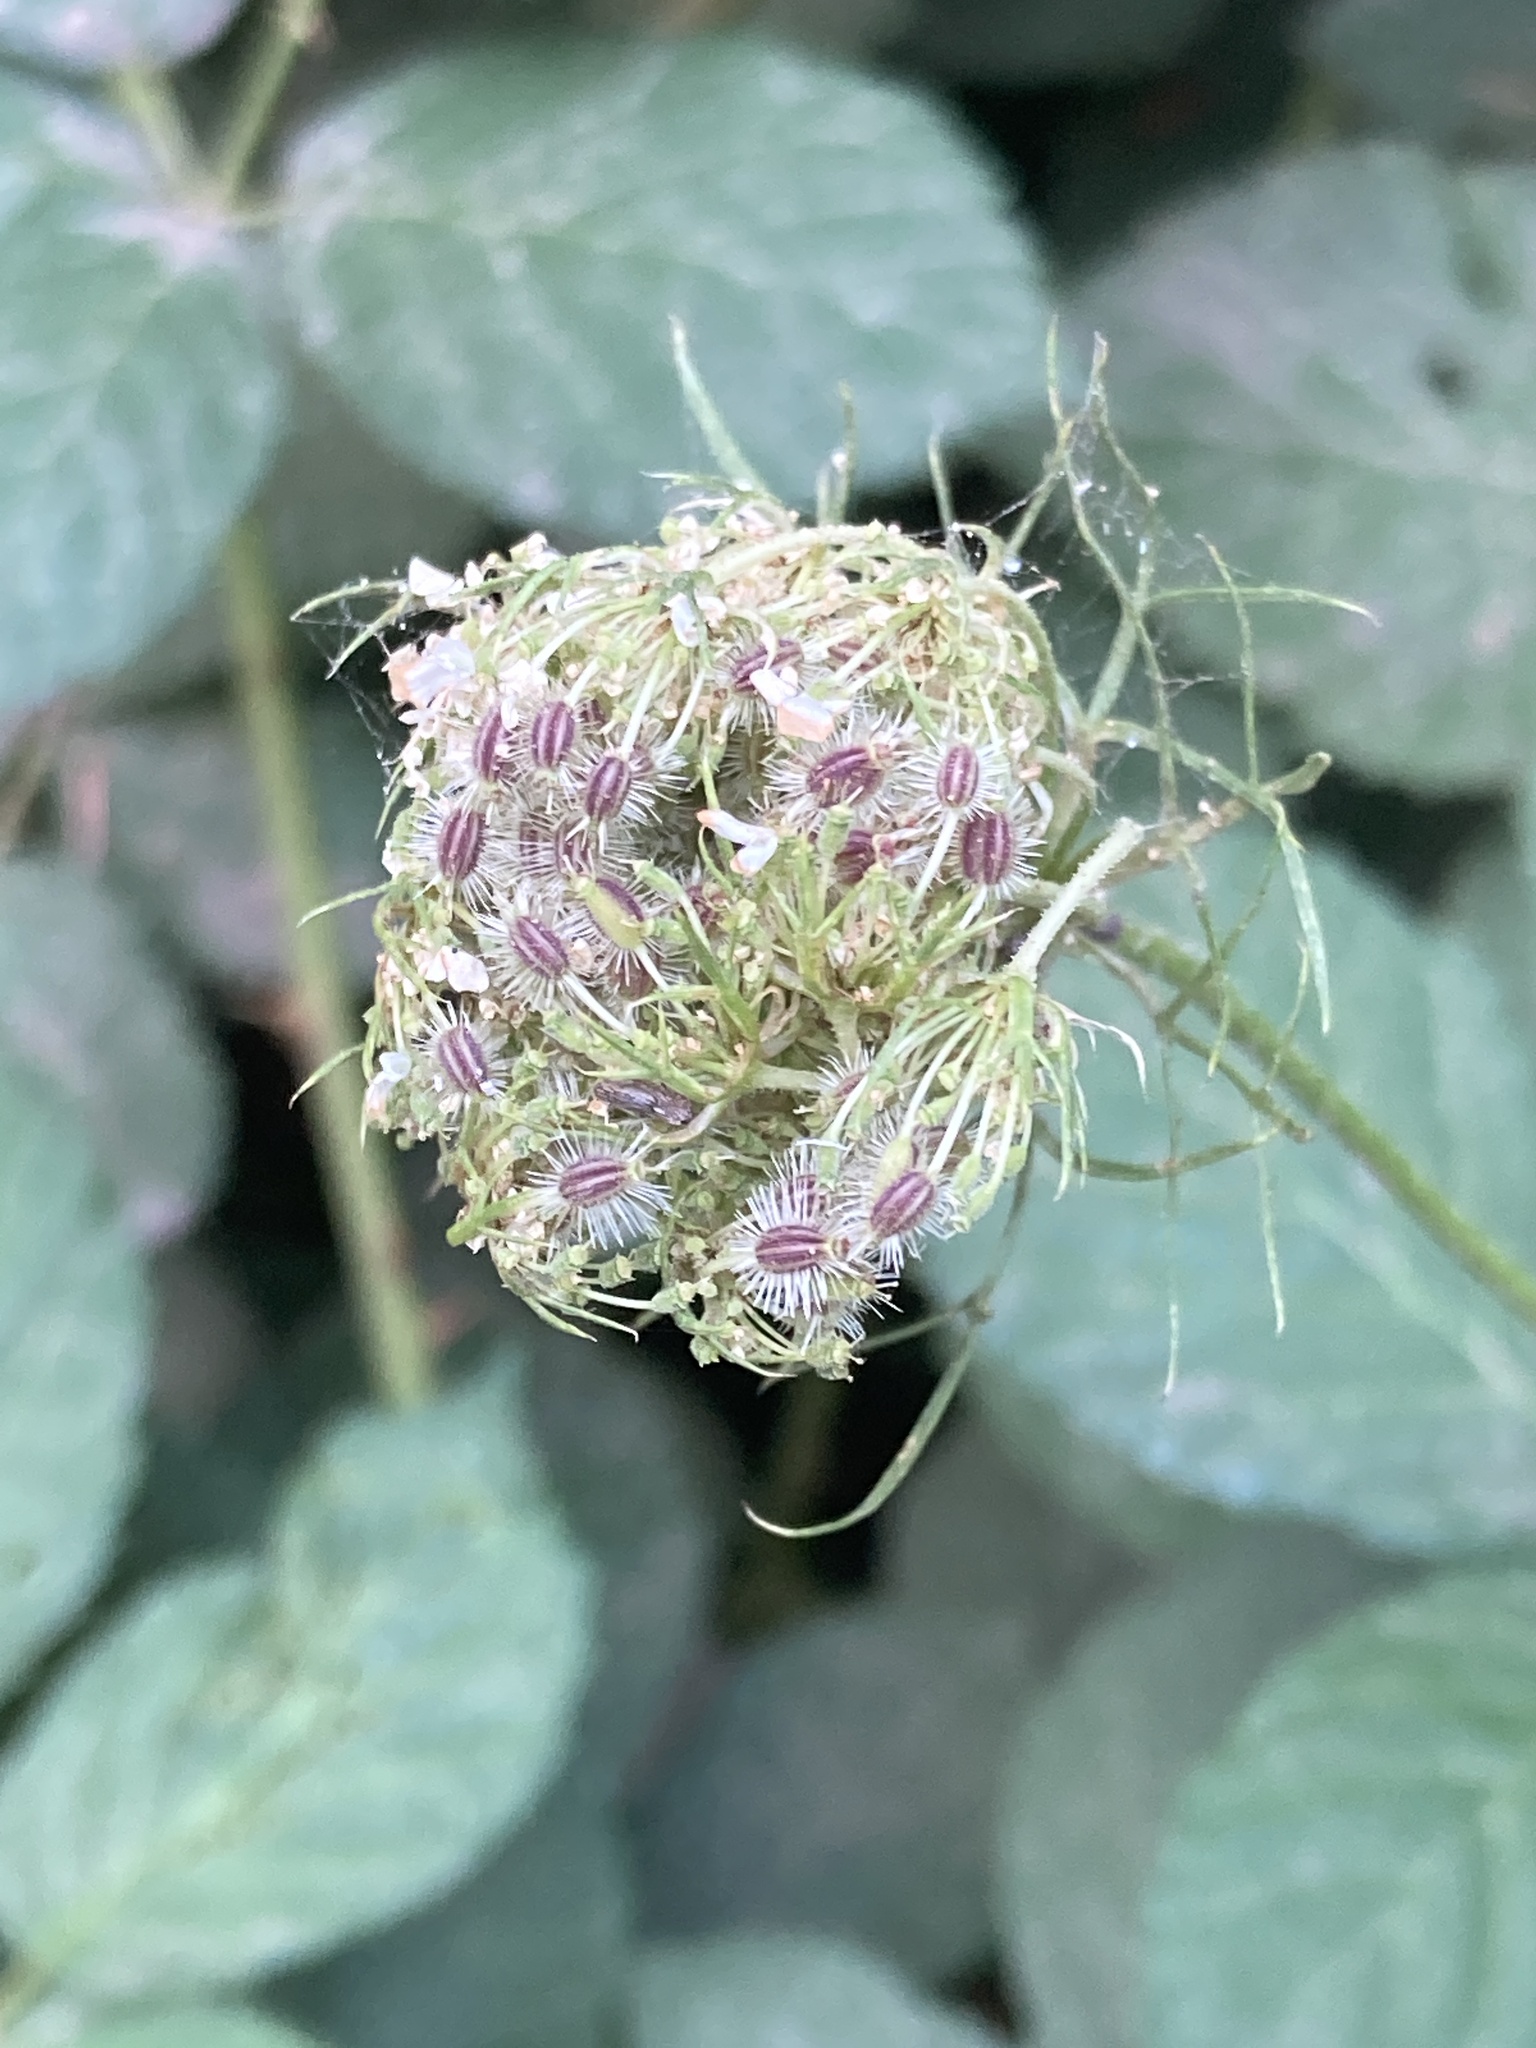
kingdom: Plantae
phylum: Tracheophyta
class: Magnoliopsida
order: Apiales
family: Apiaceae
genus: Daucus
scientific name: Daucus carota
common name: Wild carrot
